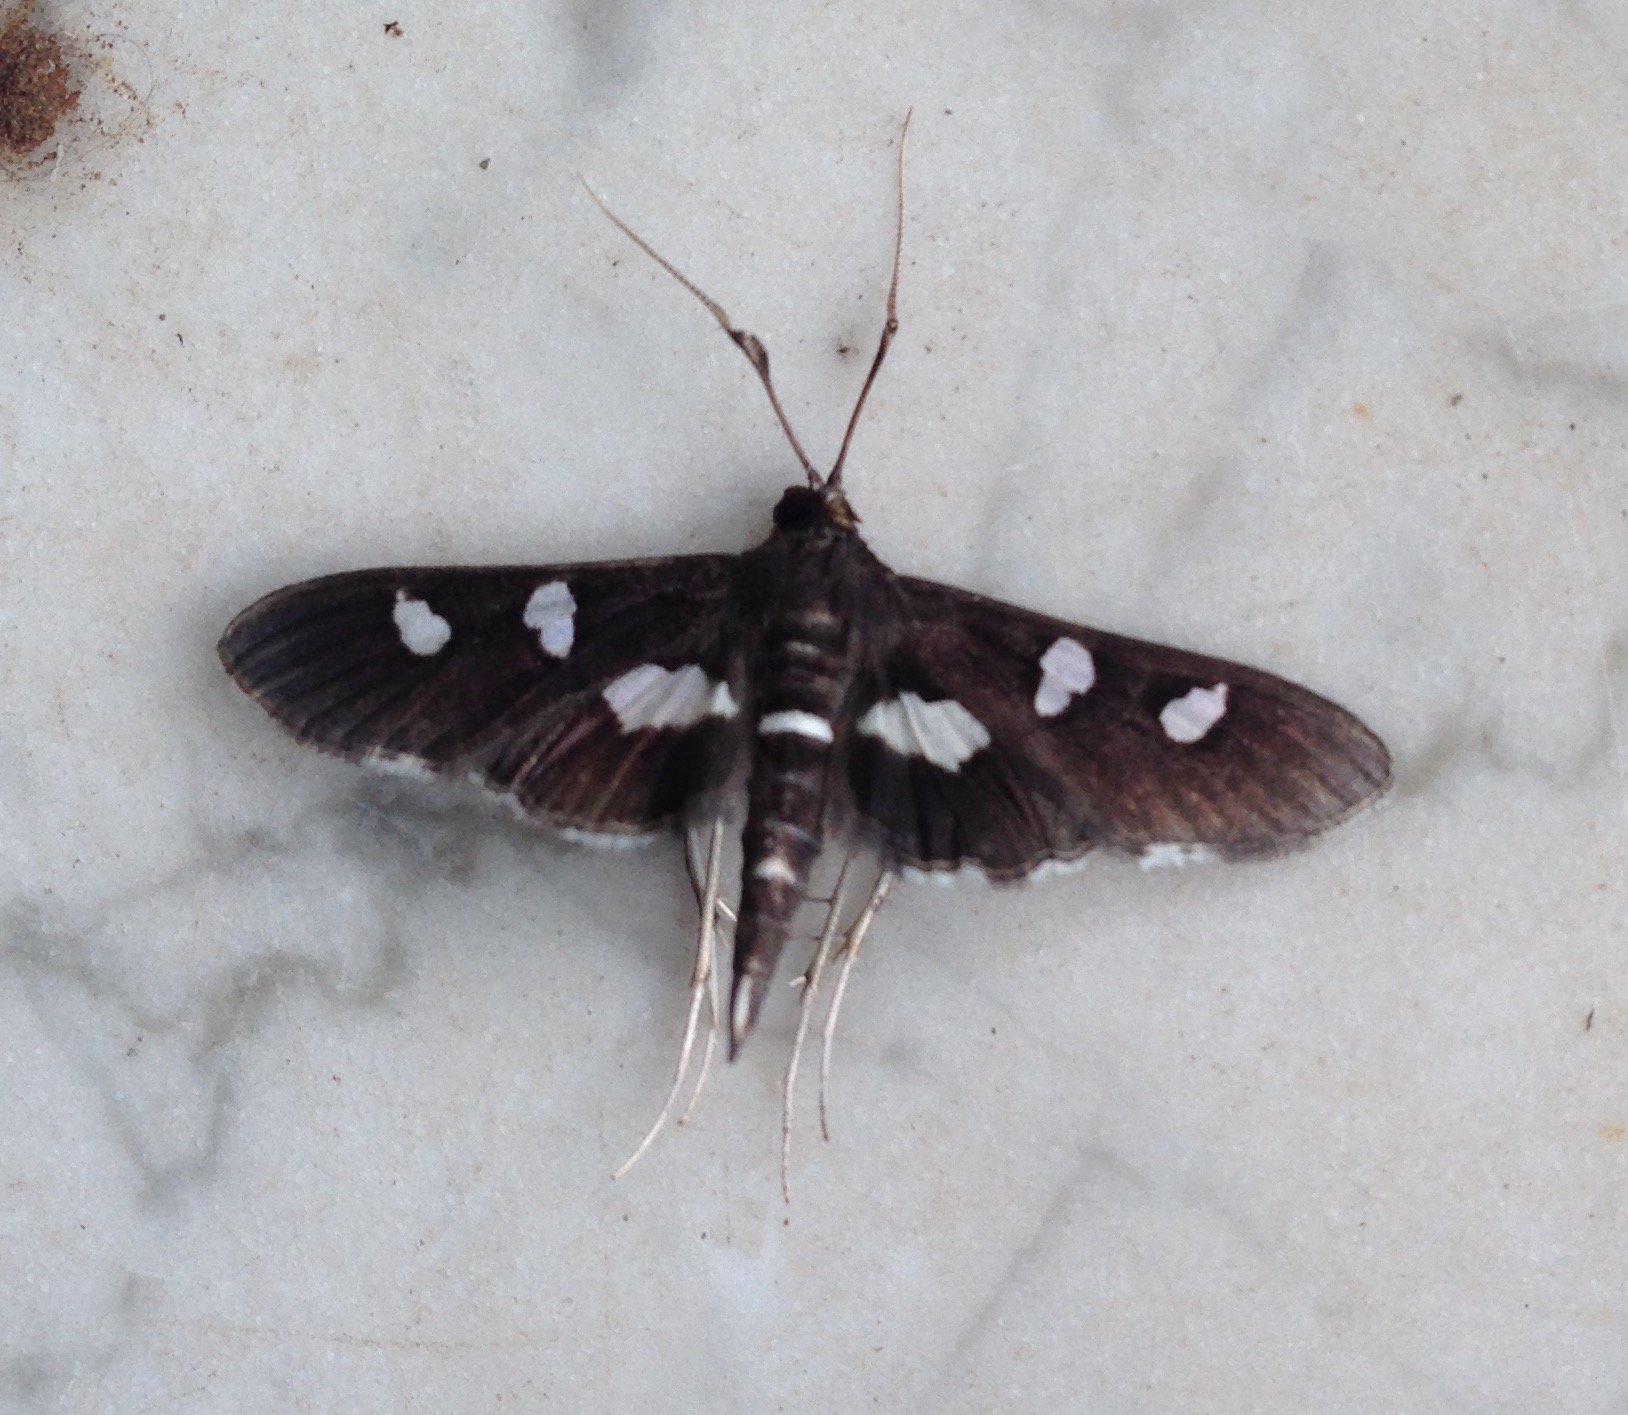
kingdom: Animalia
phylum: Arthropoda
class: Insecta
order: Lepidoptera
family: Crambidae
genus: Desmia
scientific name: Desmia funeralis
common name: Grape leaf folder moth
